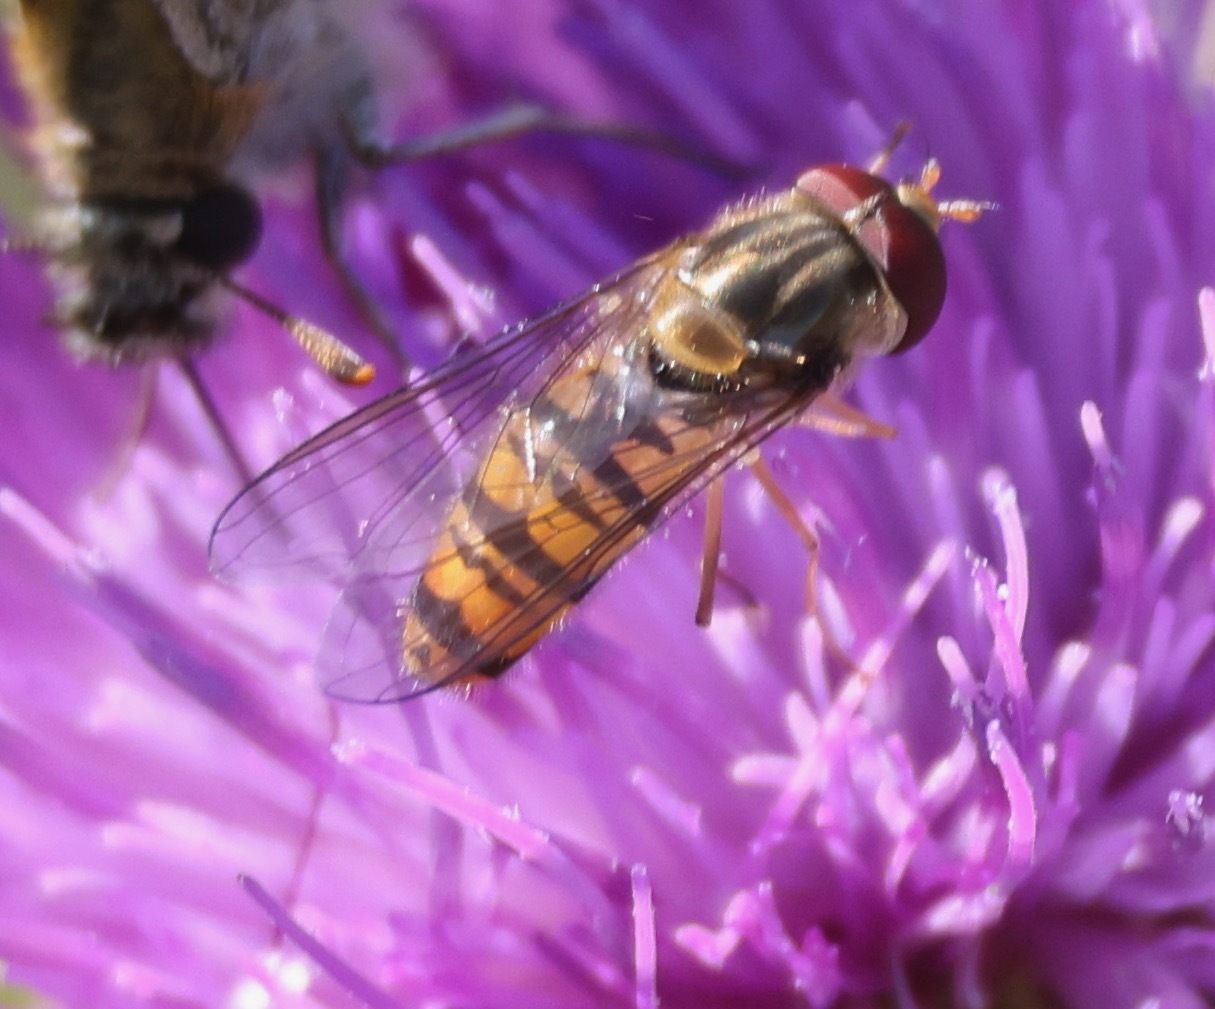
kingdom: Animalia
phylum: Arthropoda
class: Insecta
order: Diptera
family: Syrphidae
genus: Episyrphus
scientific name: Episyrphus balteatus
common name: Marmalade hoverfly
